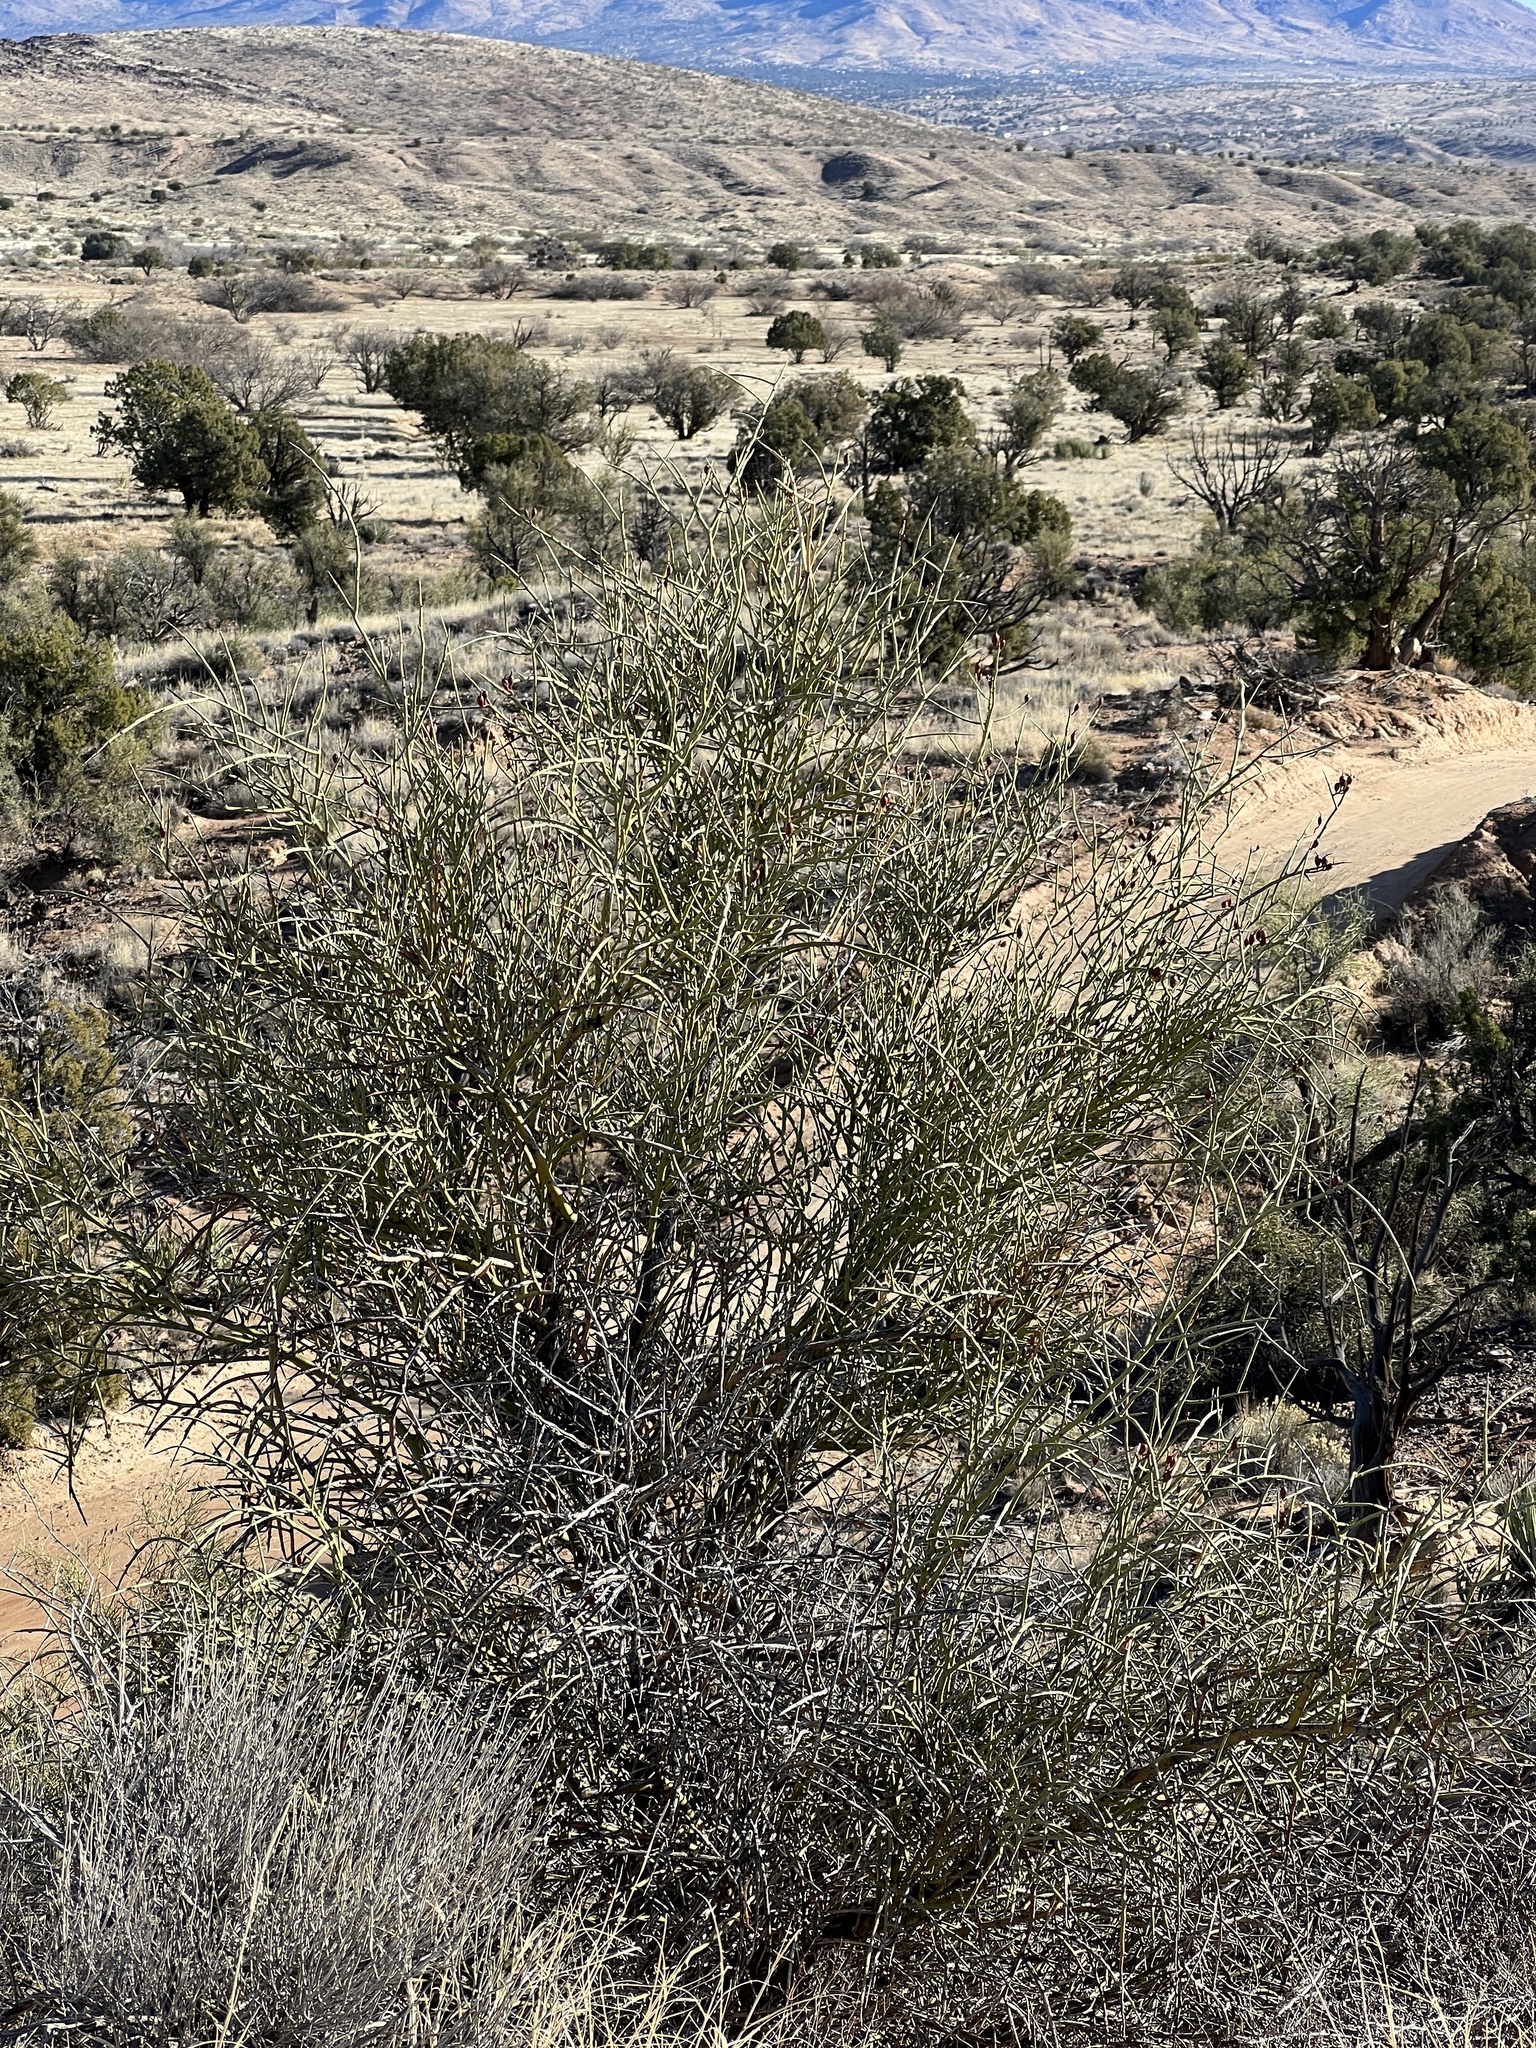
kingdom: Plantae
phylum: Tracheophyta
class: Magnoliopsida
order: Celastrales
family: Celastraceae
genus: Canotia
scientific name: Canotia holacantha
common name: Crucifixion thorns
